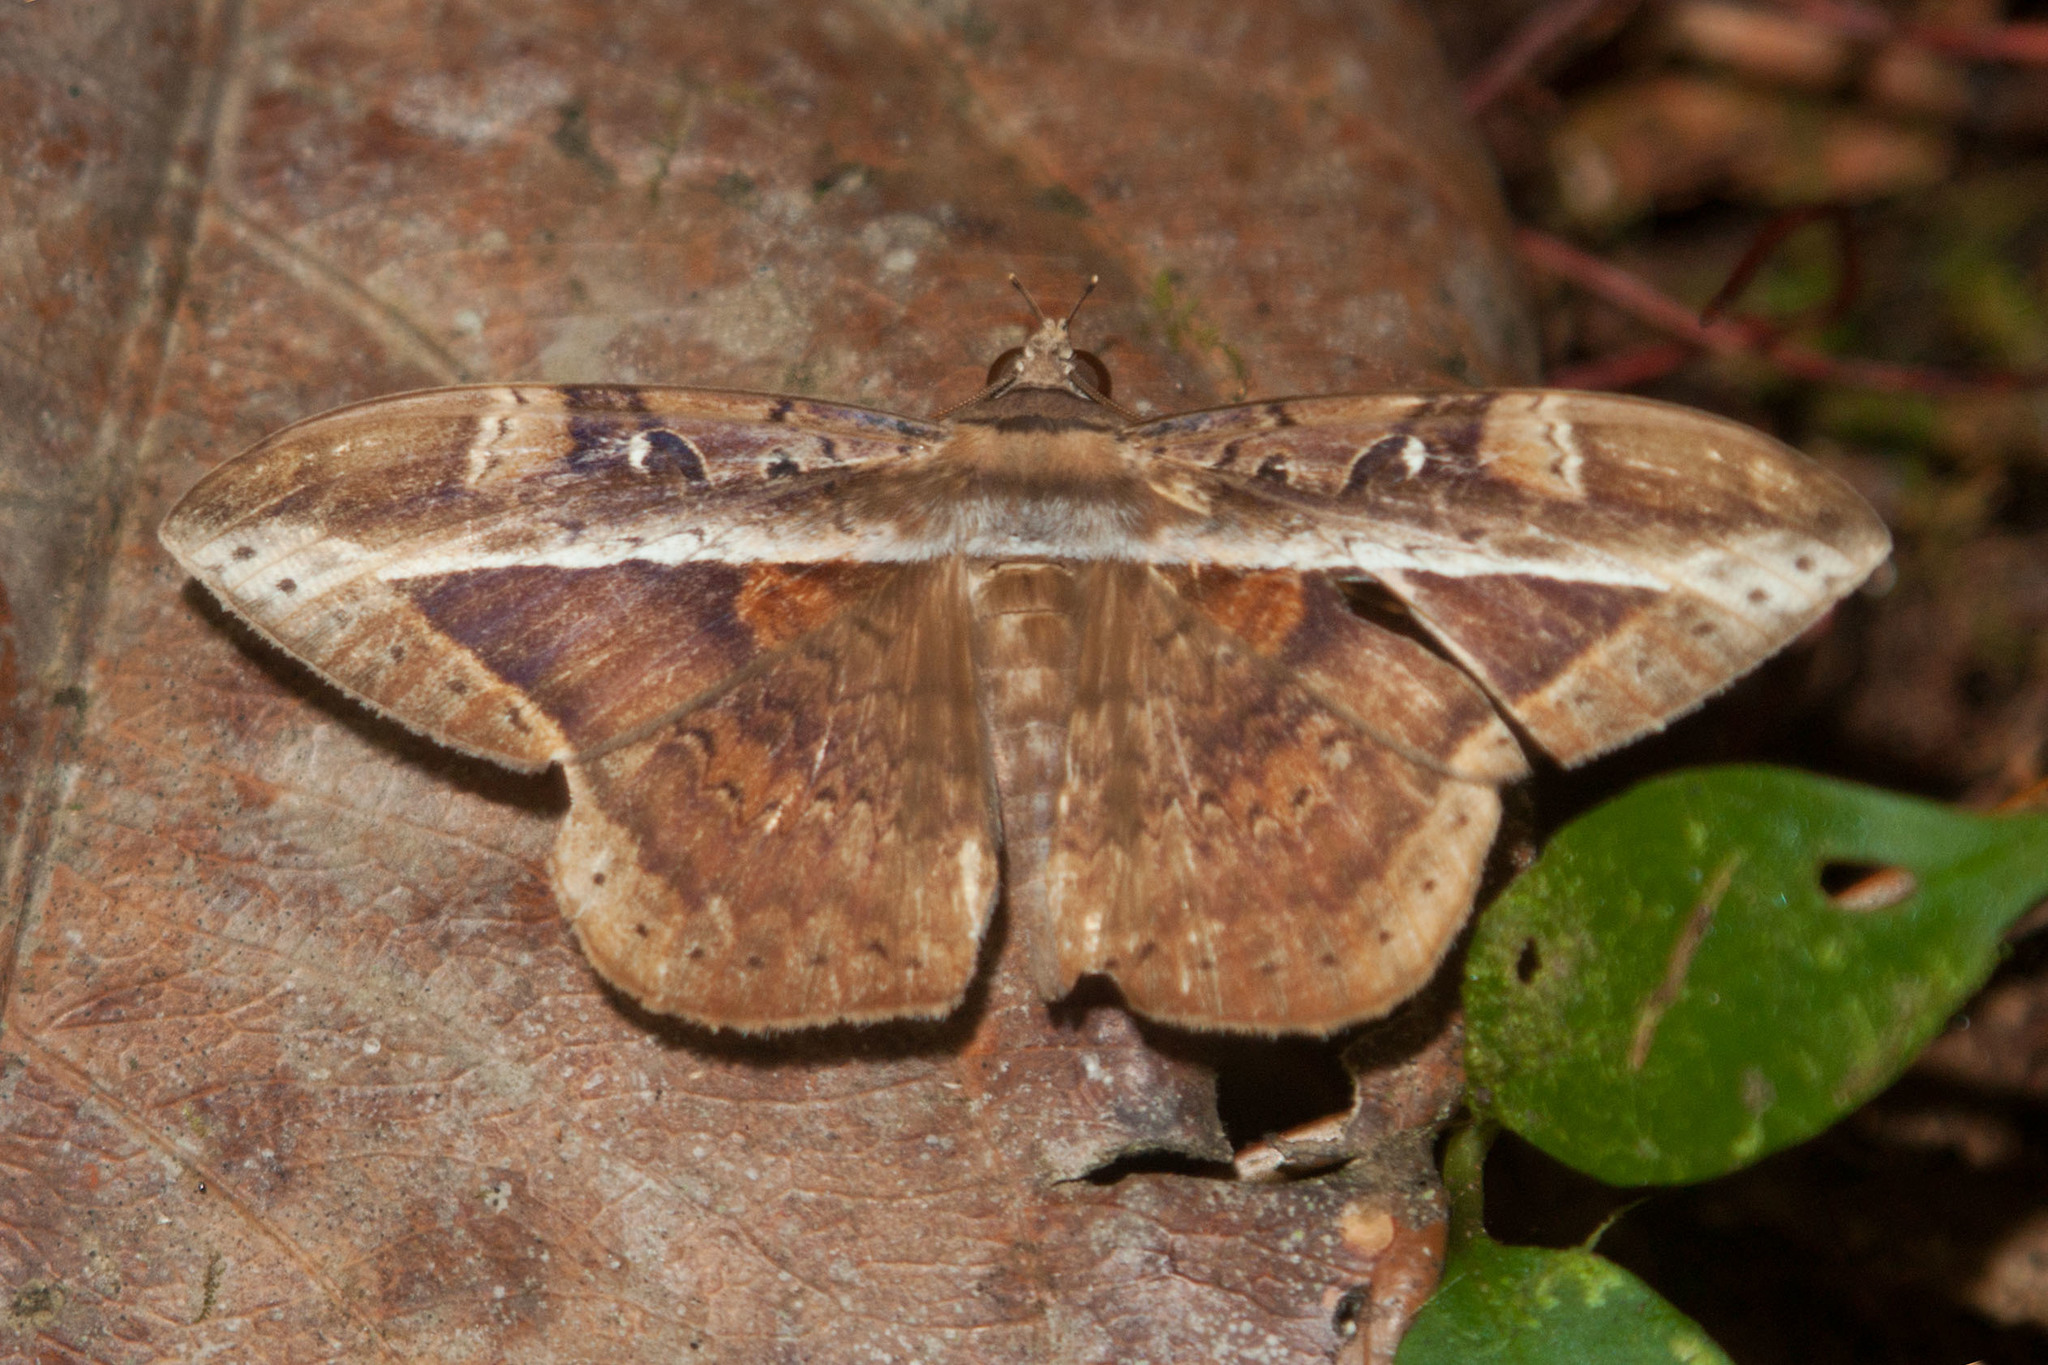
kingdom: Animalia
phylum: Arthropoda
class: Insecta
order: Lepidoptera
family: Erebidae
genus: Hemeroblemma
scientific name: Hemeroblemma opigena
